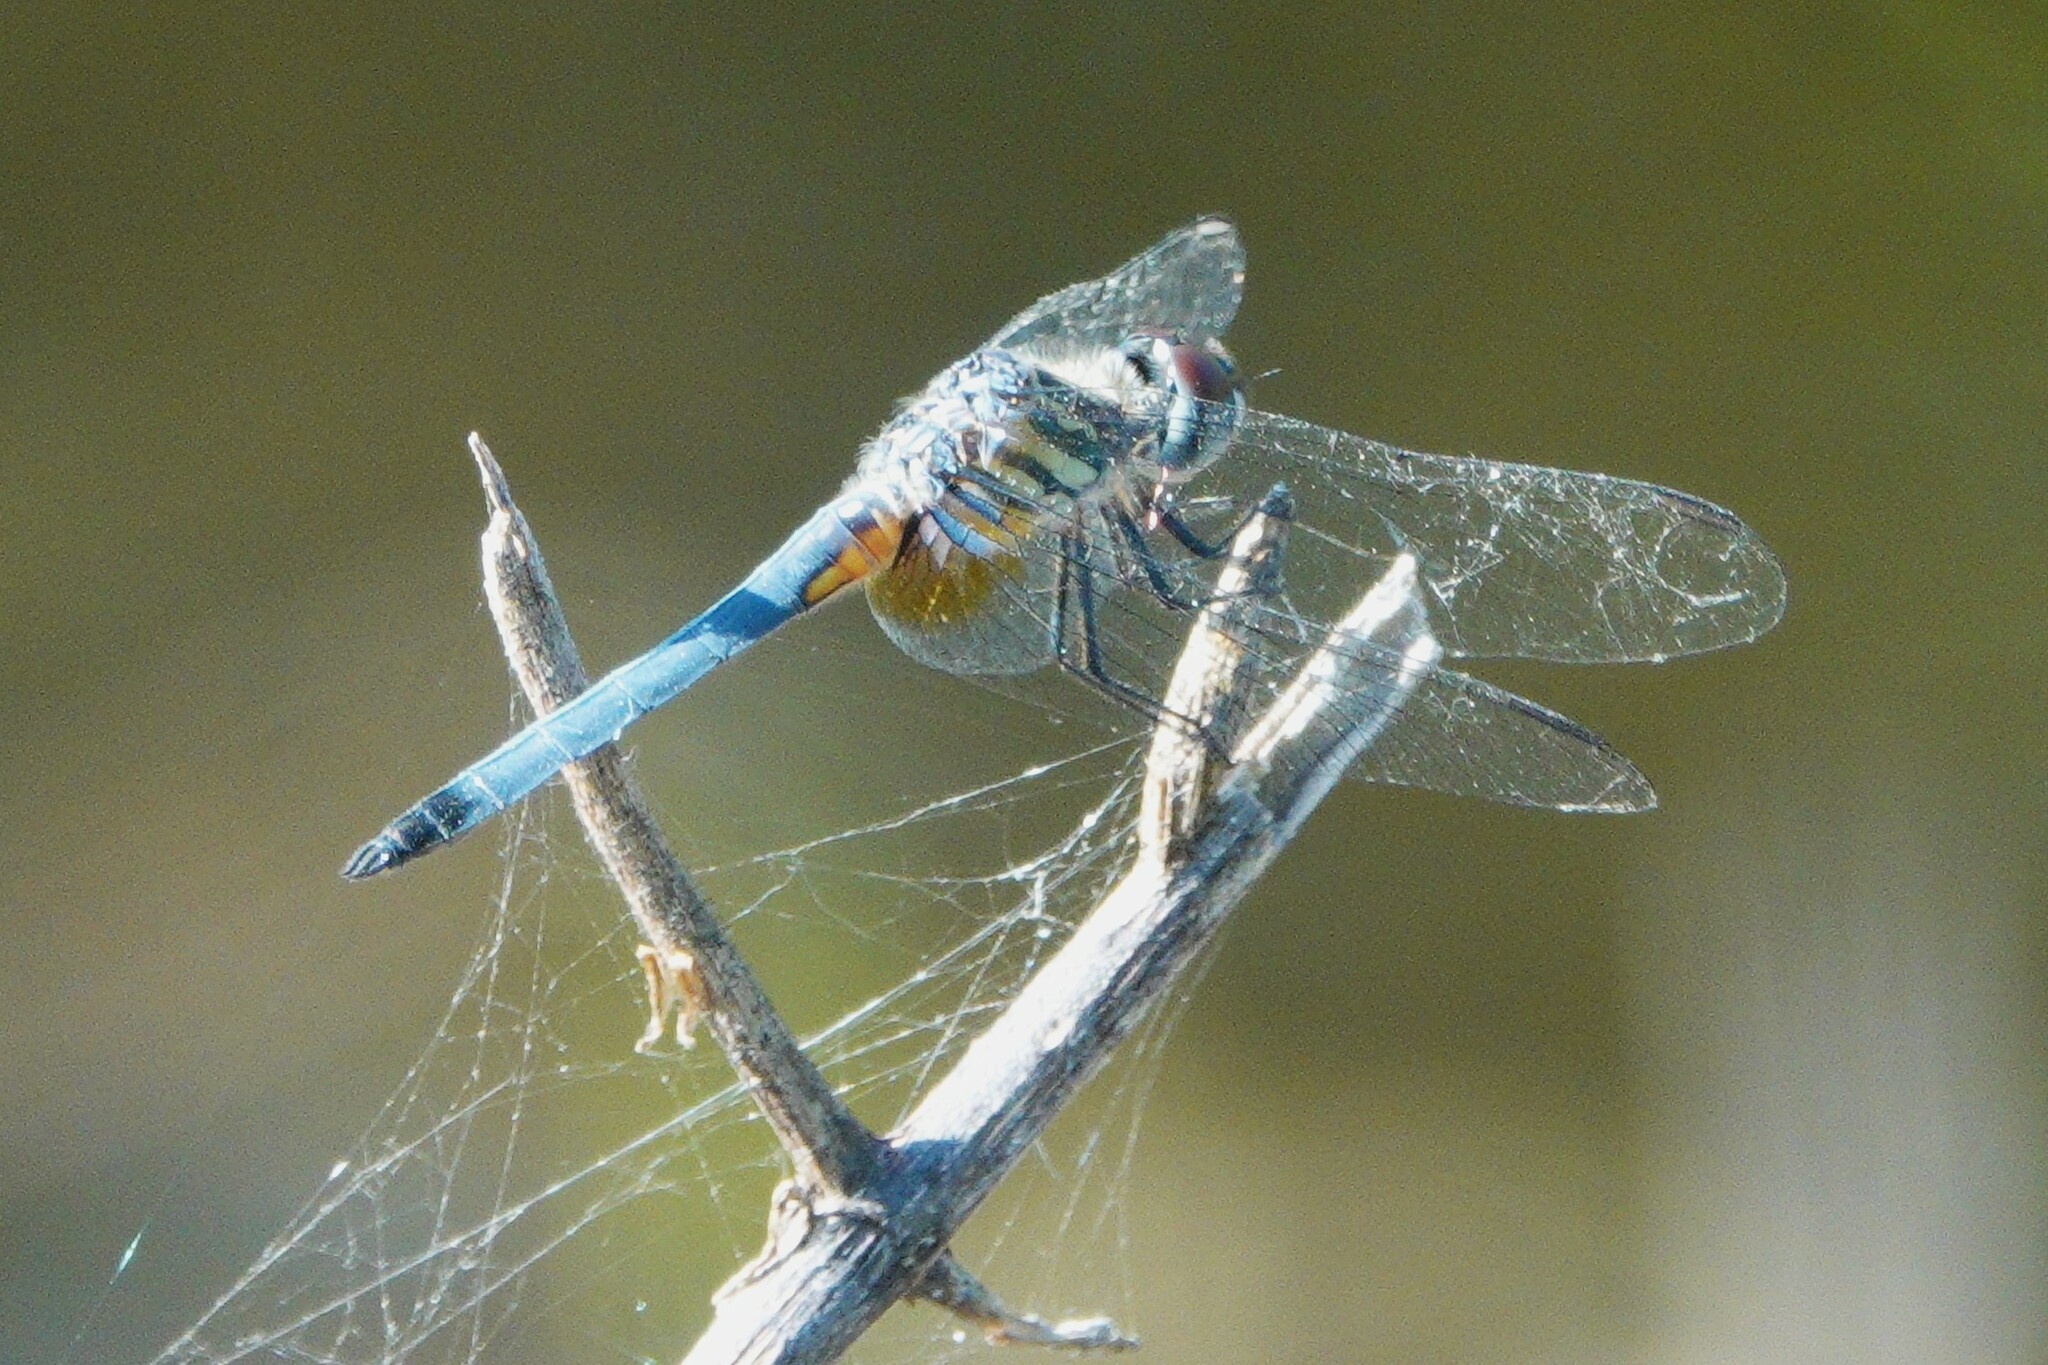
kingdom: Animalia
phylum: Arthropoda
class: Insecta
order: Odonata
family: Libellulidae
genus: Pachydiplax
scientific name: Pachydiplax longipennis
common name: Blue dasher
